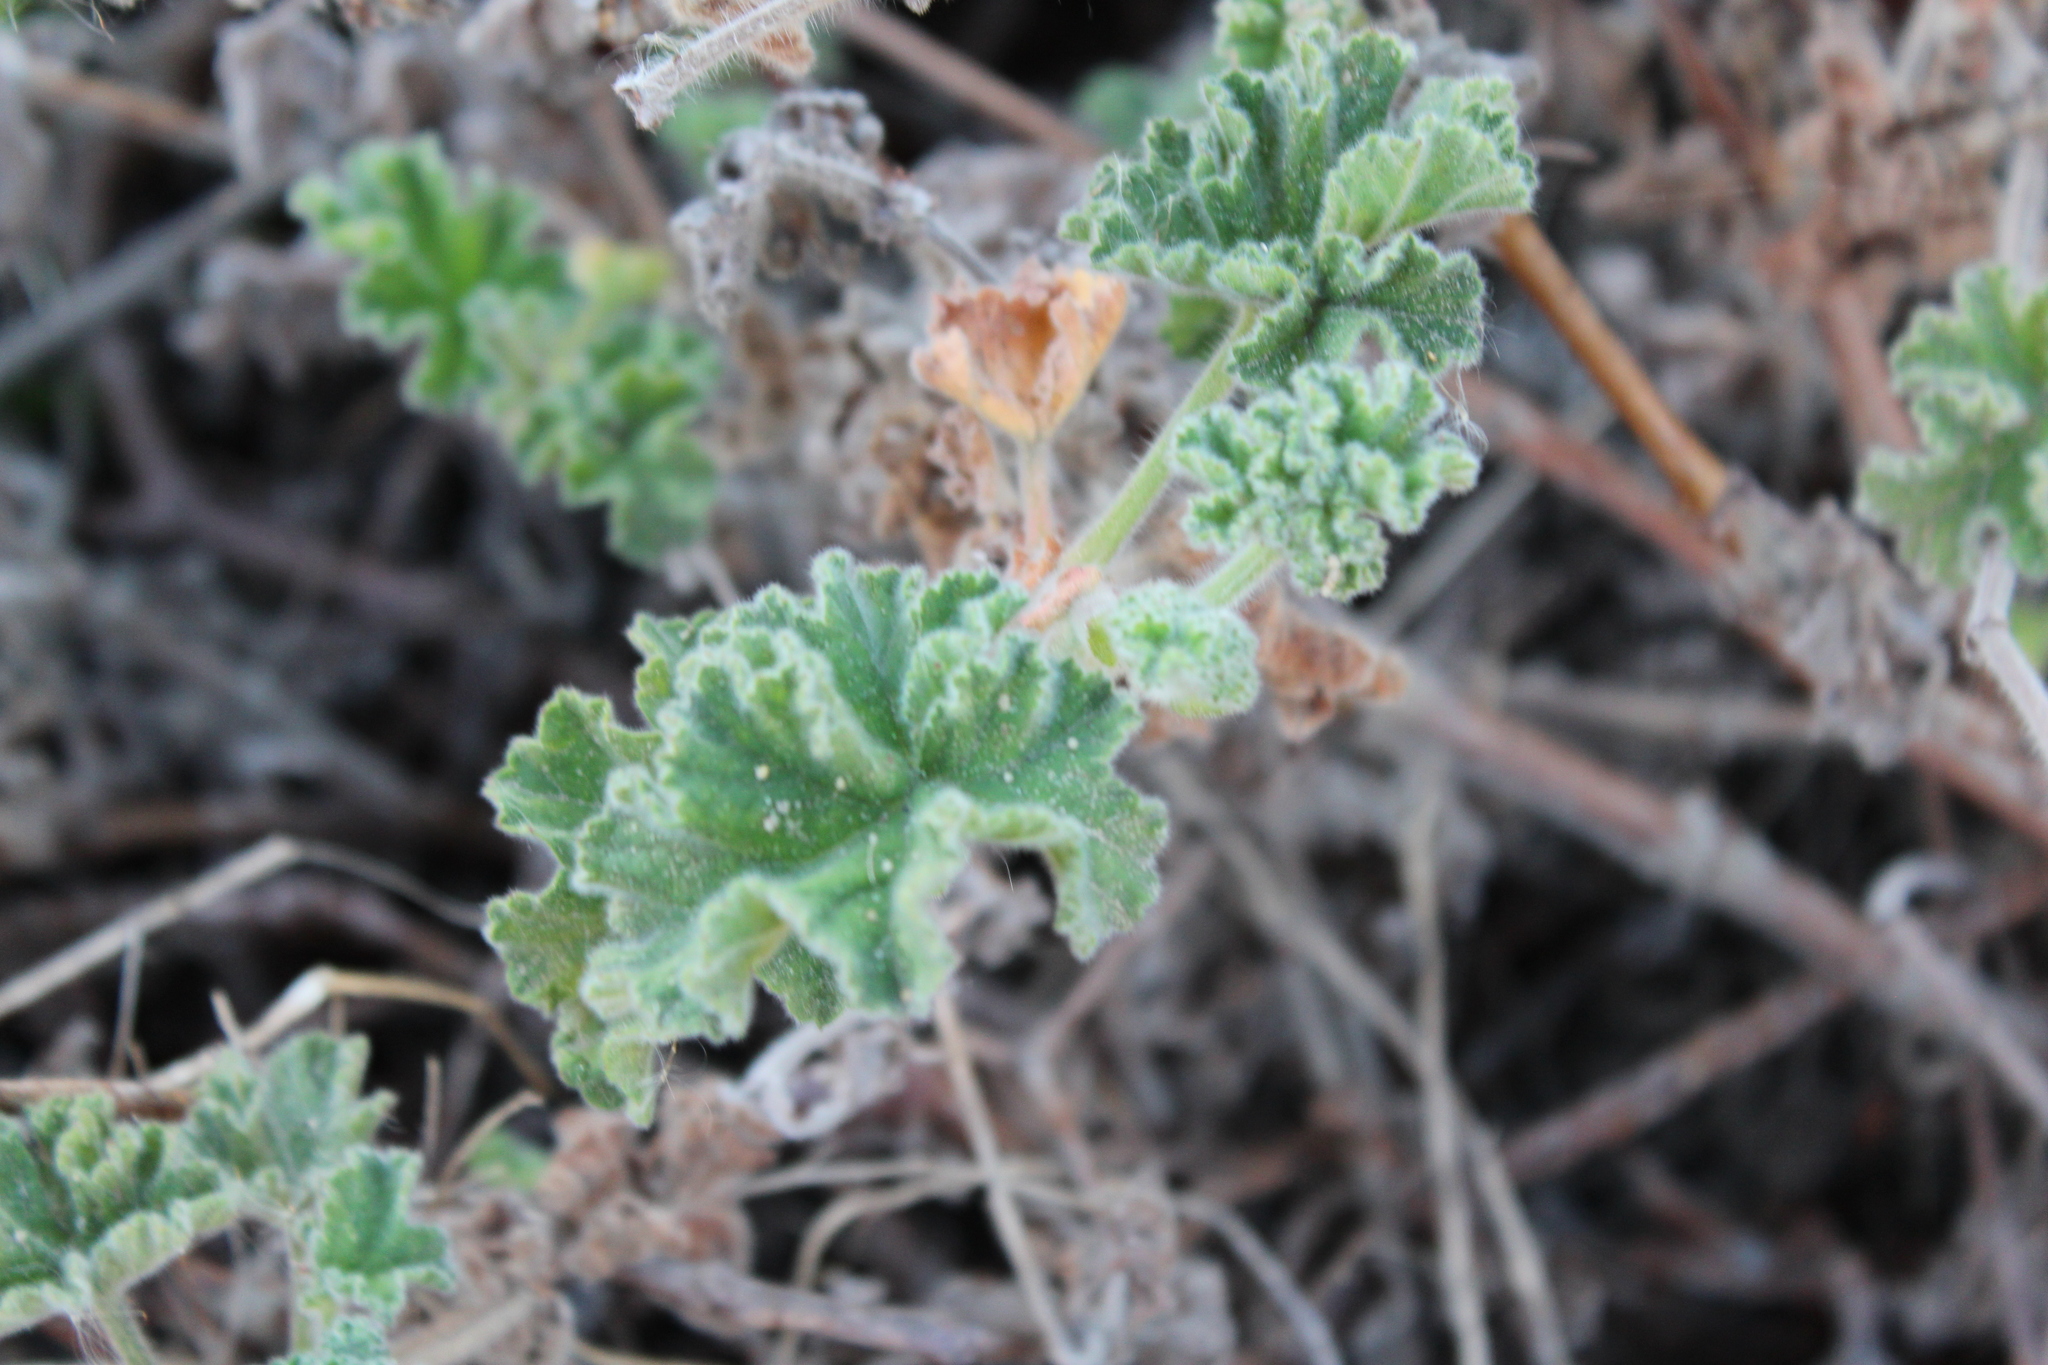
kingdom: Plantae
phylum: Tracheophyta
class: Magnoliopsida
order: Geraniales
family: Geraniaceae
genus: Pelargonium
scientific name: Pelargonium capitatum
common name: Rose scented geranium
